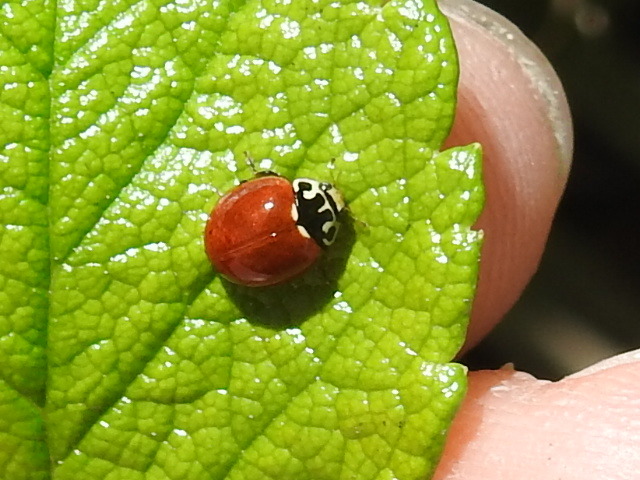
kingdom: Animalia
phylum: Arthropoda
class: Insecta
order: Coleoptera
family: Coccinellidae
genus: Cycloneda
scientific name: Cycloneda polita
